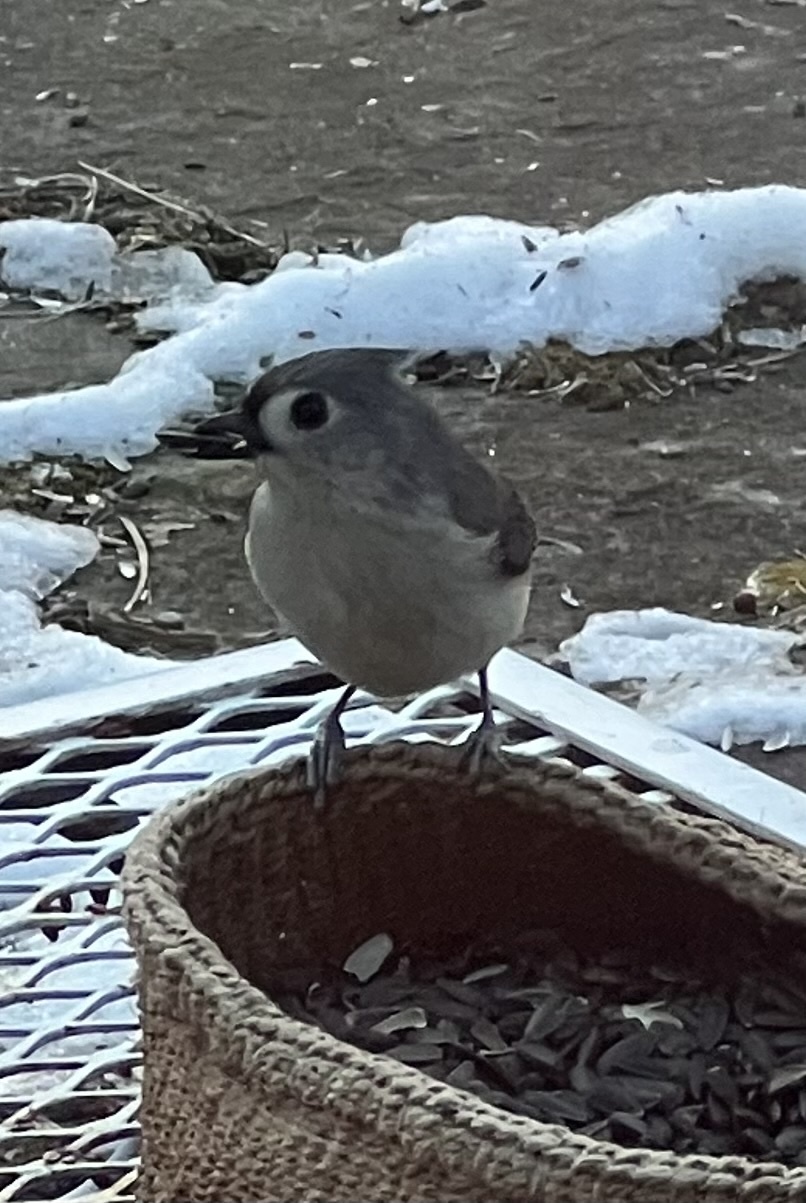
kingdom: Animalia
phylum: Chordata
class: Aves
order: Passeriformes
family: Paridae
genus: Baeolophus
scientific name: Baeolophus bicolor
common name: Tufted titmouse
